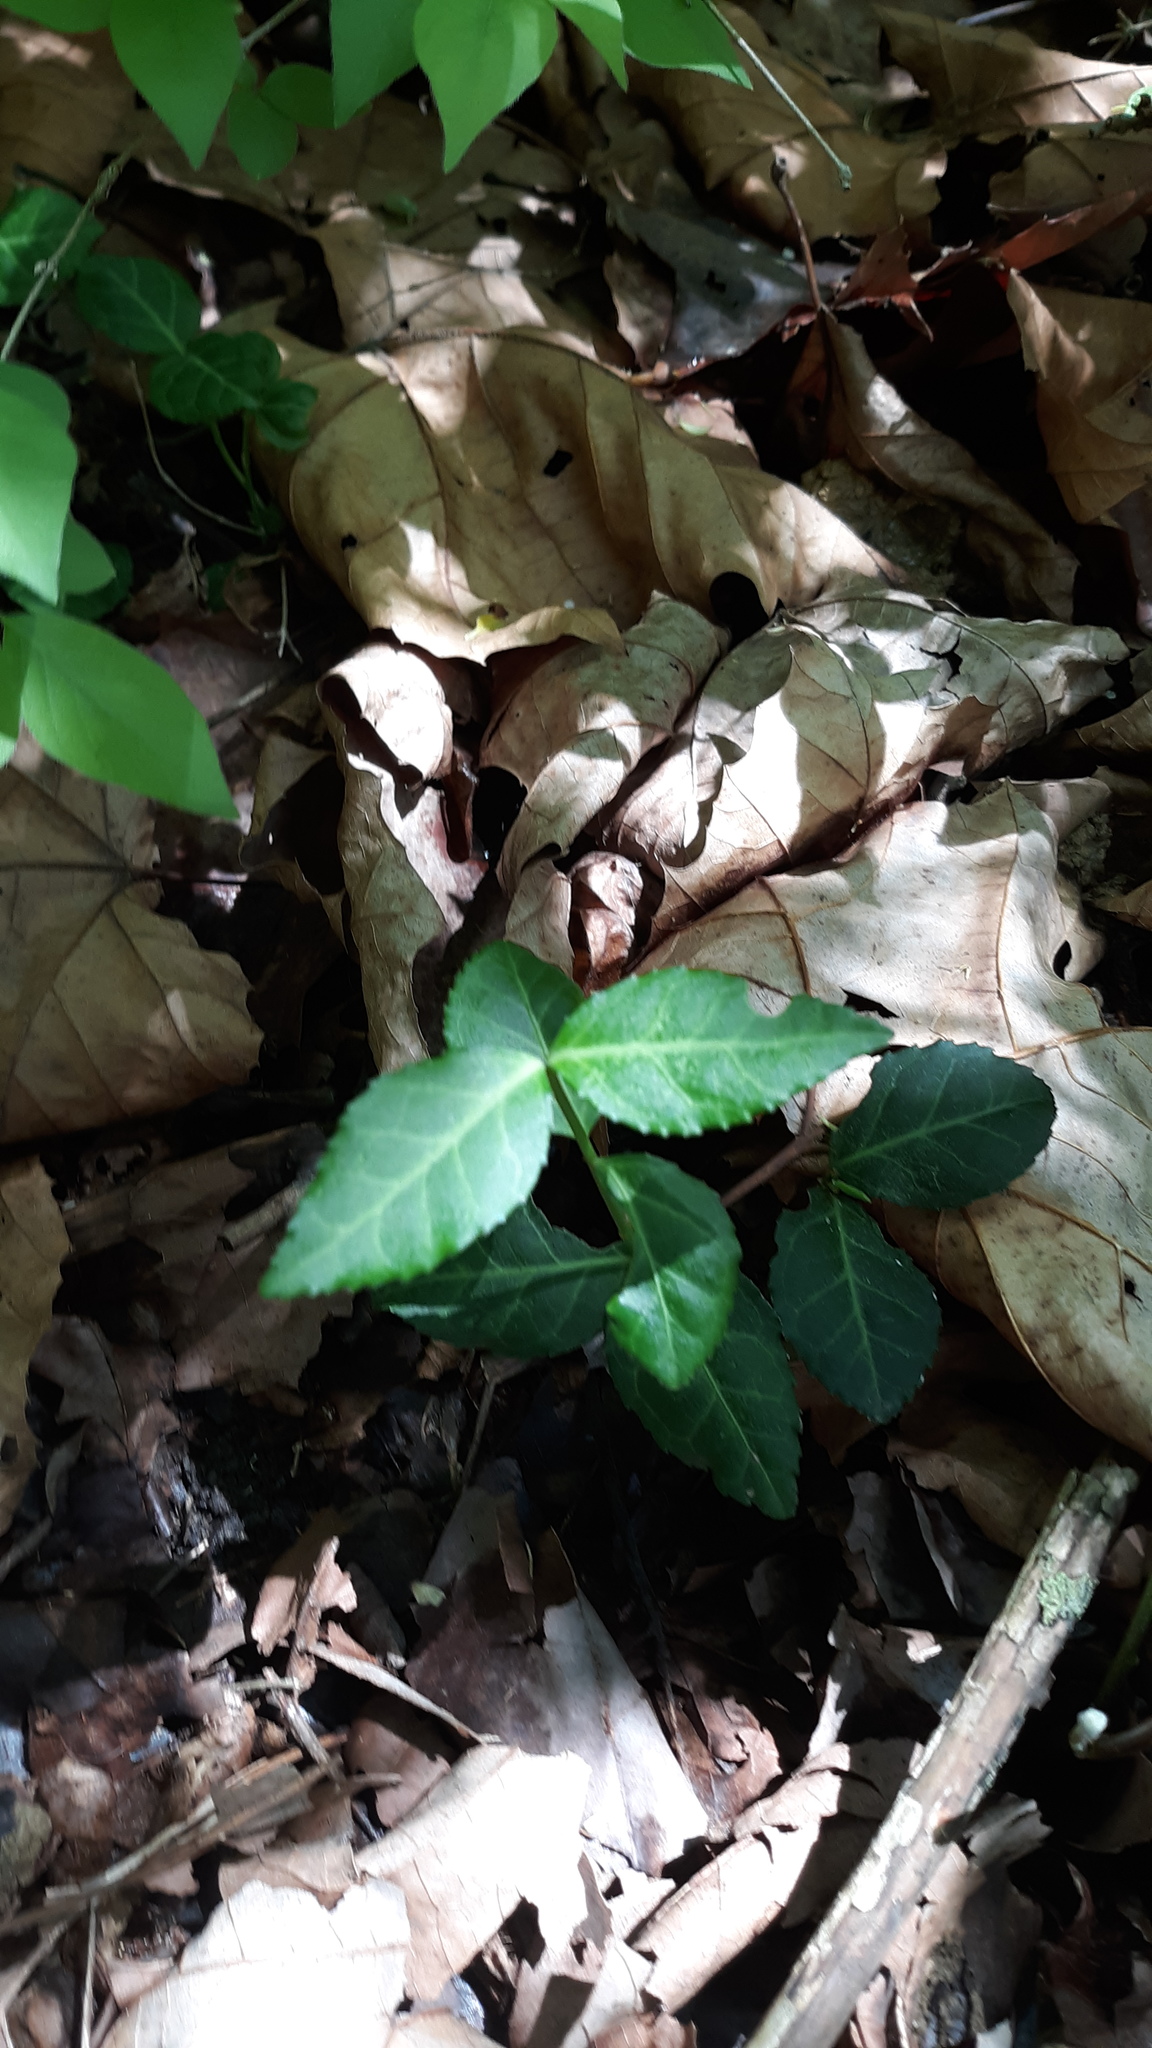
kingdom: Plantae
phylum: Tracheophyta
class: Magnoliopsida
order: Celastrales
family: Celastraceae
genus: Euonymus
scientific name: Euonymus fortunei
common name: Climbing euonymus
